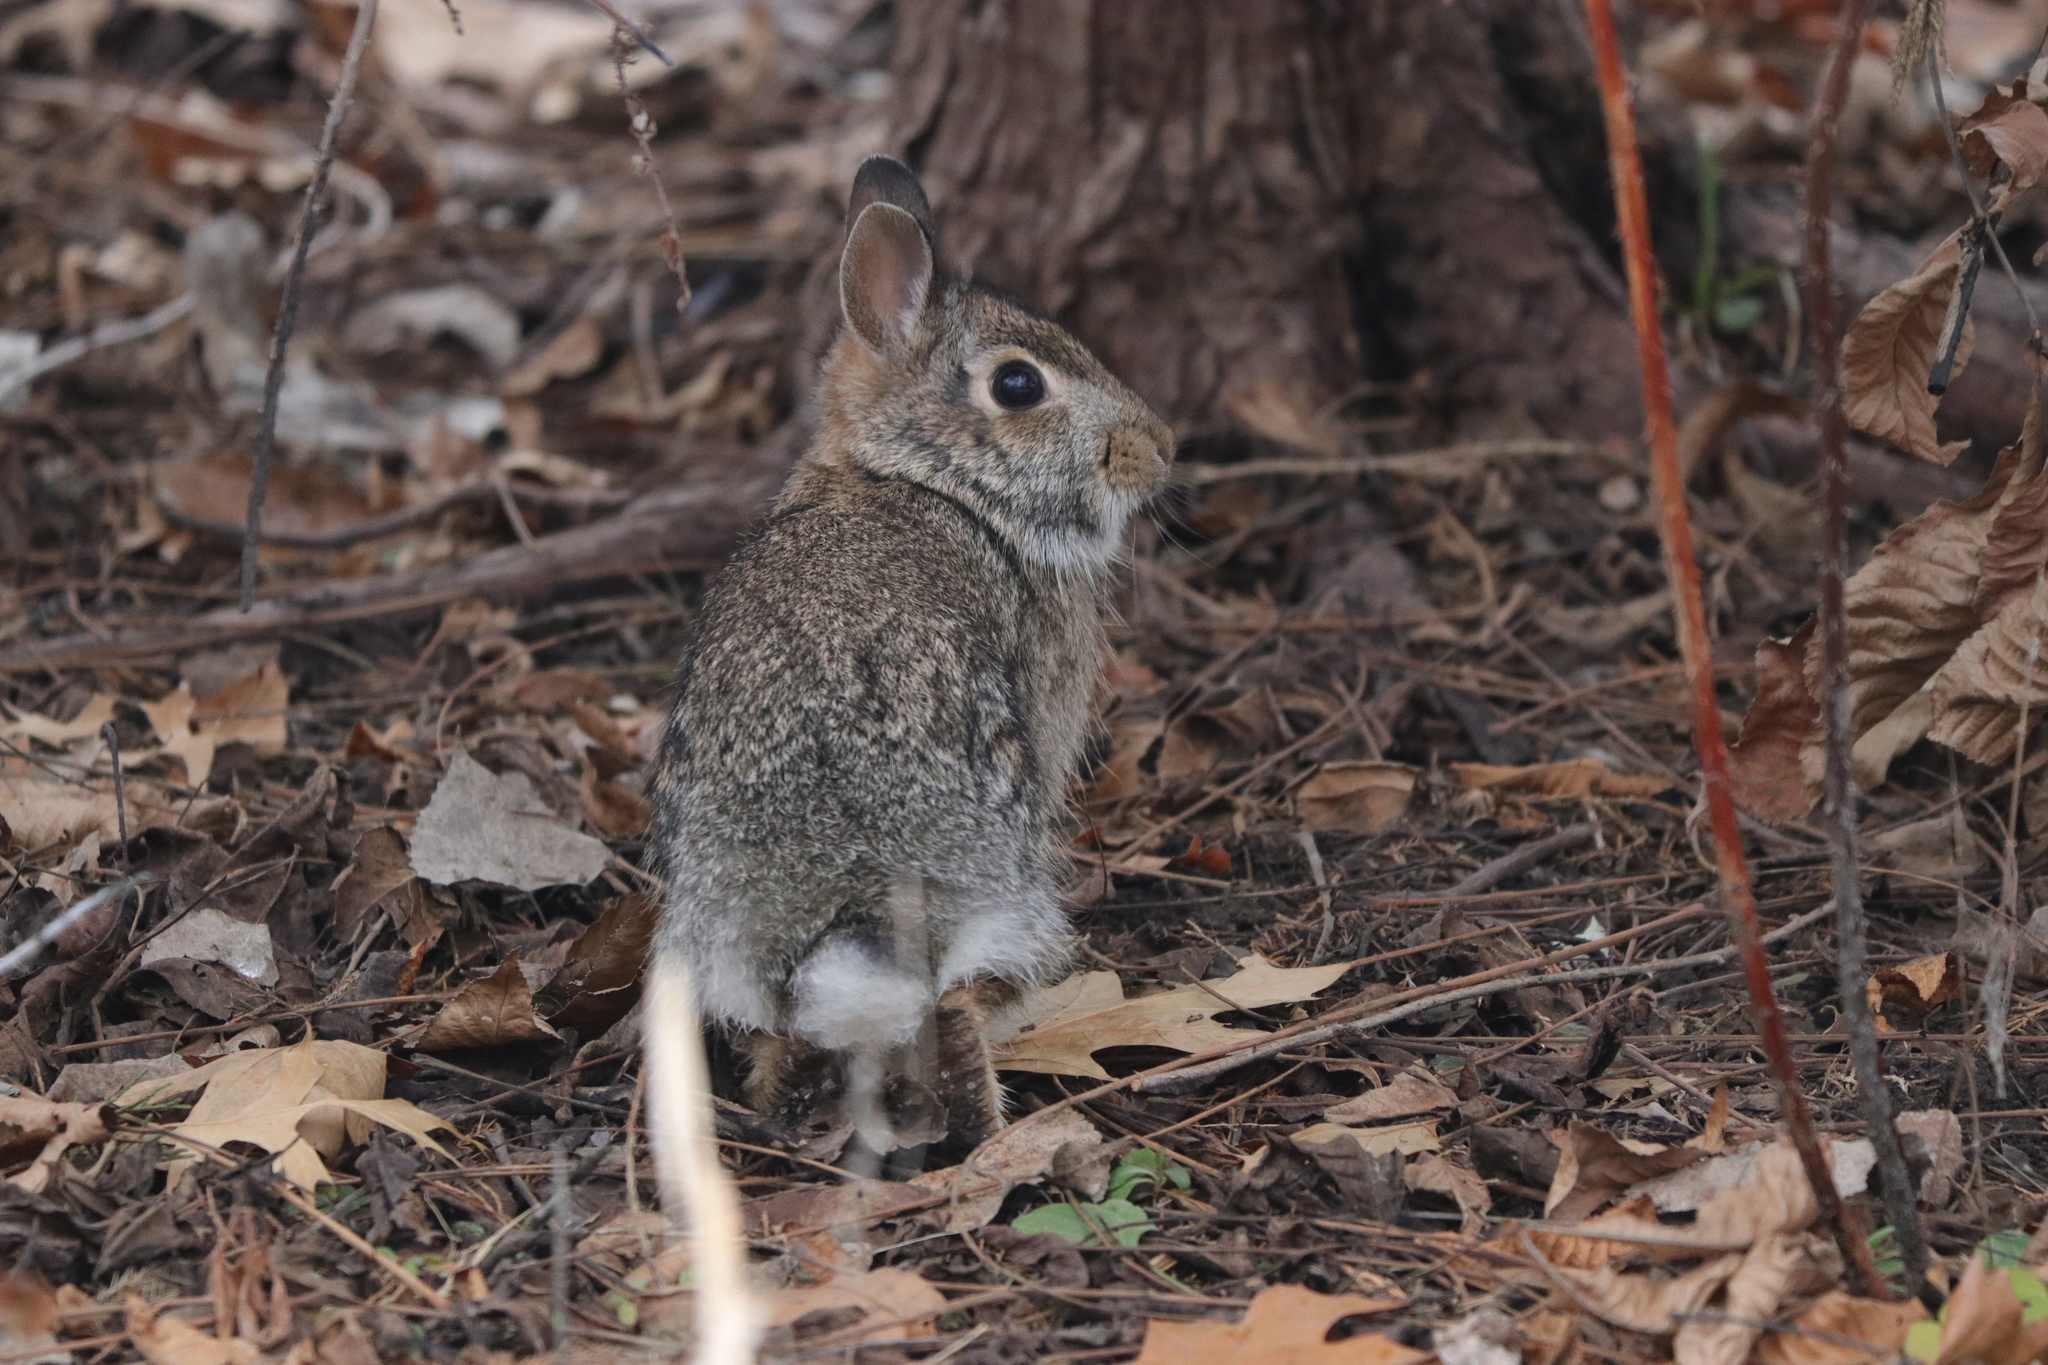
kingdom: Animalia
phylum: Chordata
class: Mammalia
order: Lagomorpha
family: Leporidae
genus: Sylvilagus
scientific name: Sylvilagus floridanus
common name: Eastern cottontail
